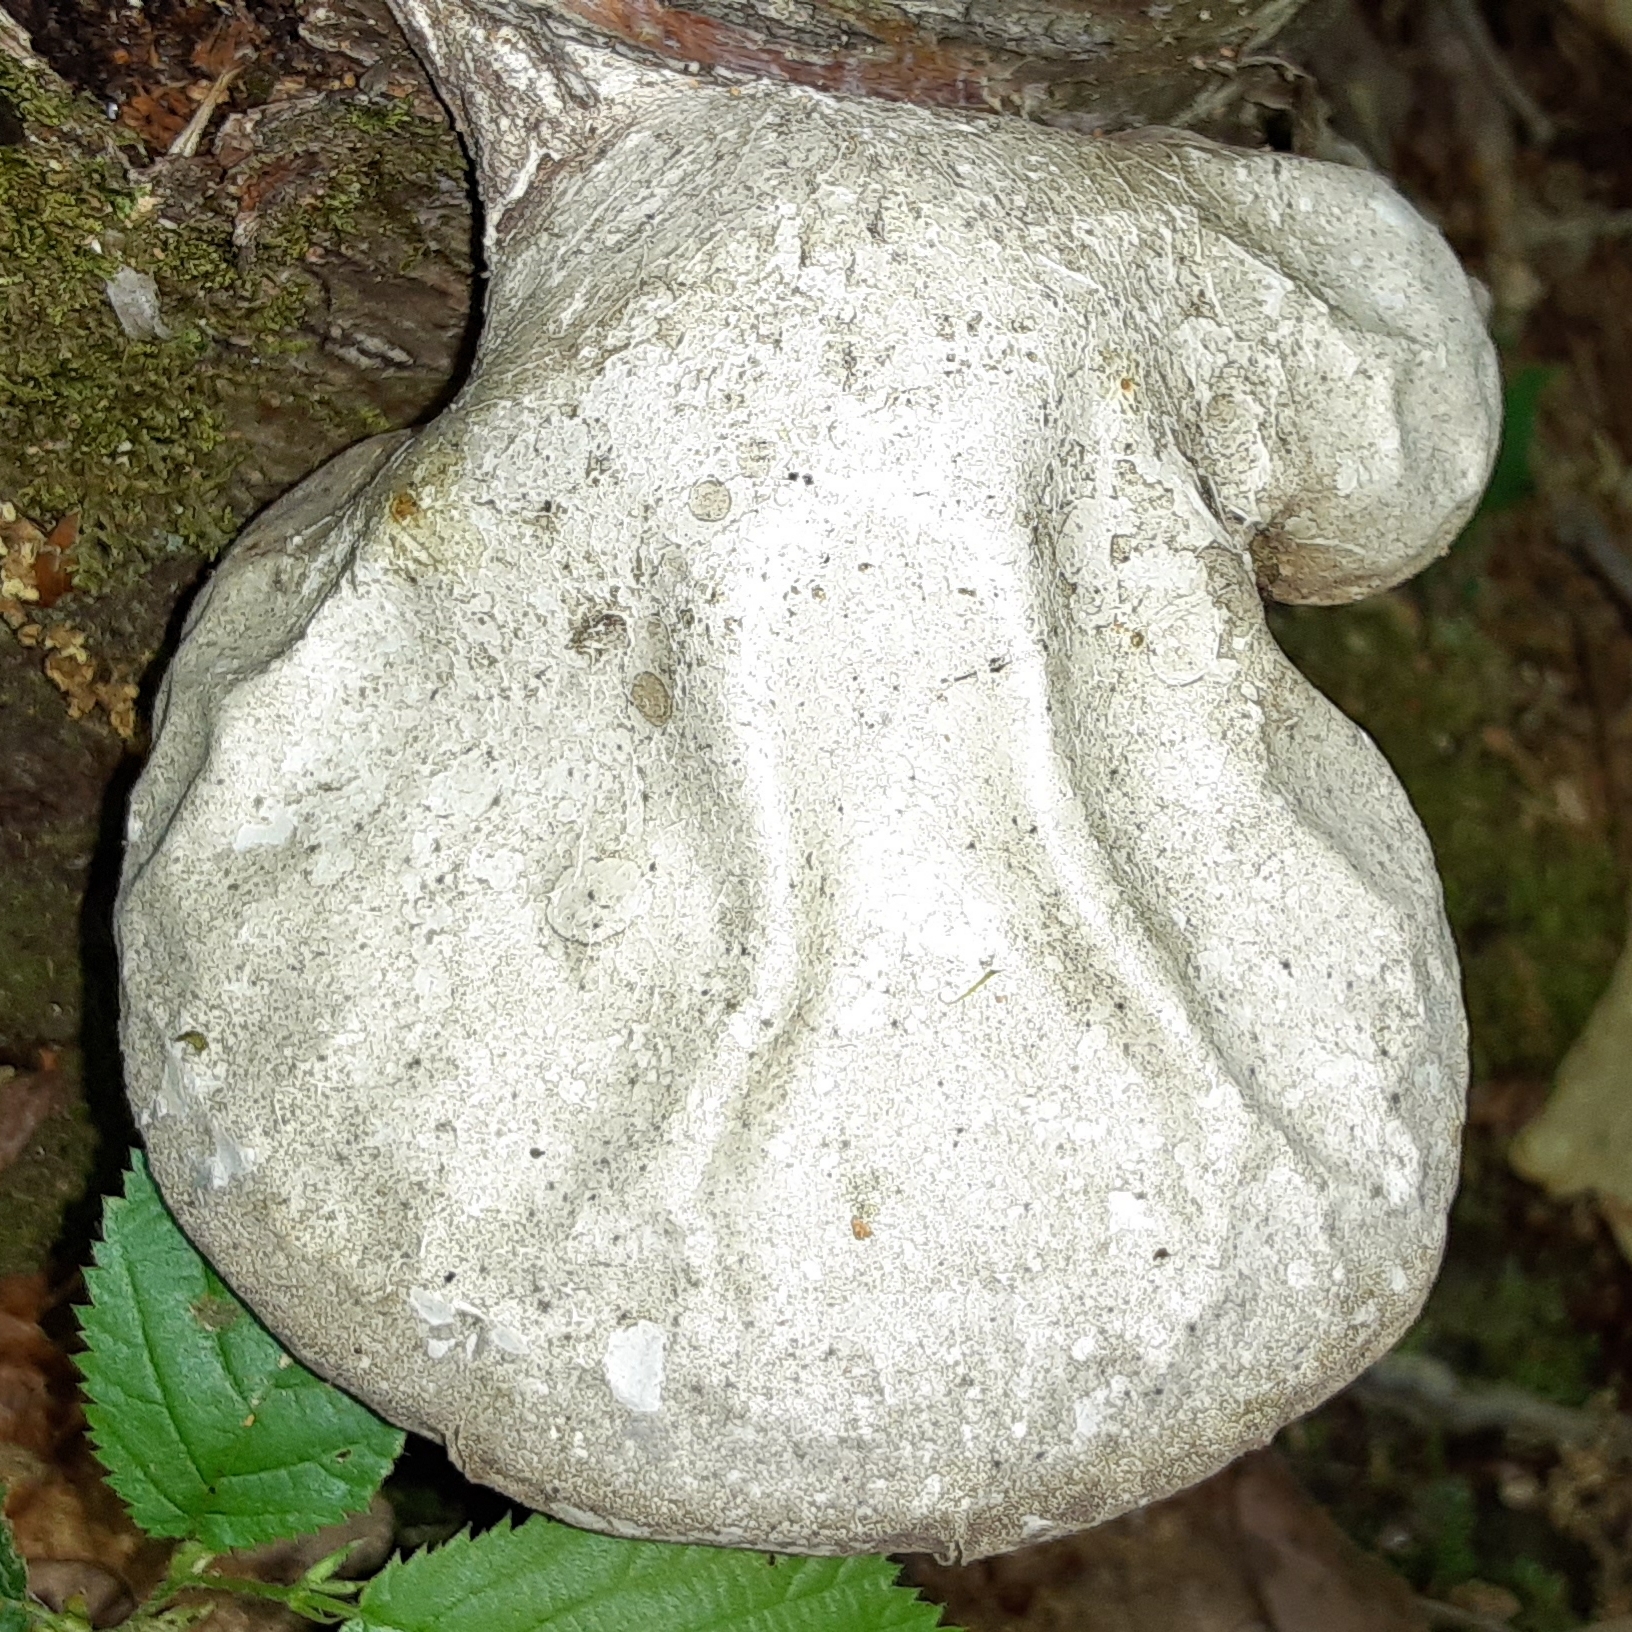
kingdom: Fungi
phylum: Basidiomycota
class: Agaricomycetes
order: Polyporales
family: Fomitopsidaceae
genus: Fomitopsis
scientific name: Fomitopsis betulina
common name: Birch polypore
